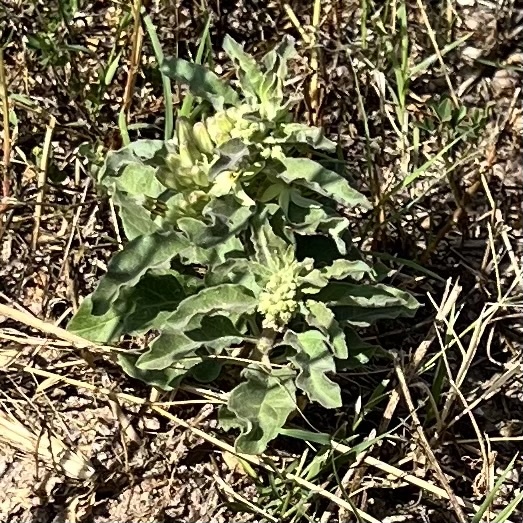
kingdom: Plantae
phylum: Tracheophyta
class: Magnoliopsida
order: Gentianales
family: Apocynaceae
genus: Asclepias
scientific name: Asclepias oenotheroides
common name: Zizotes milkweed
